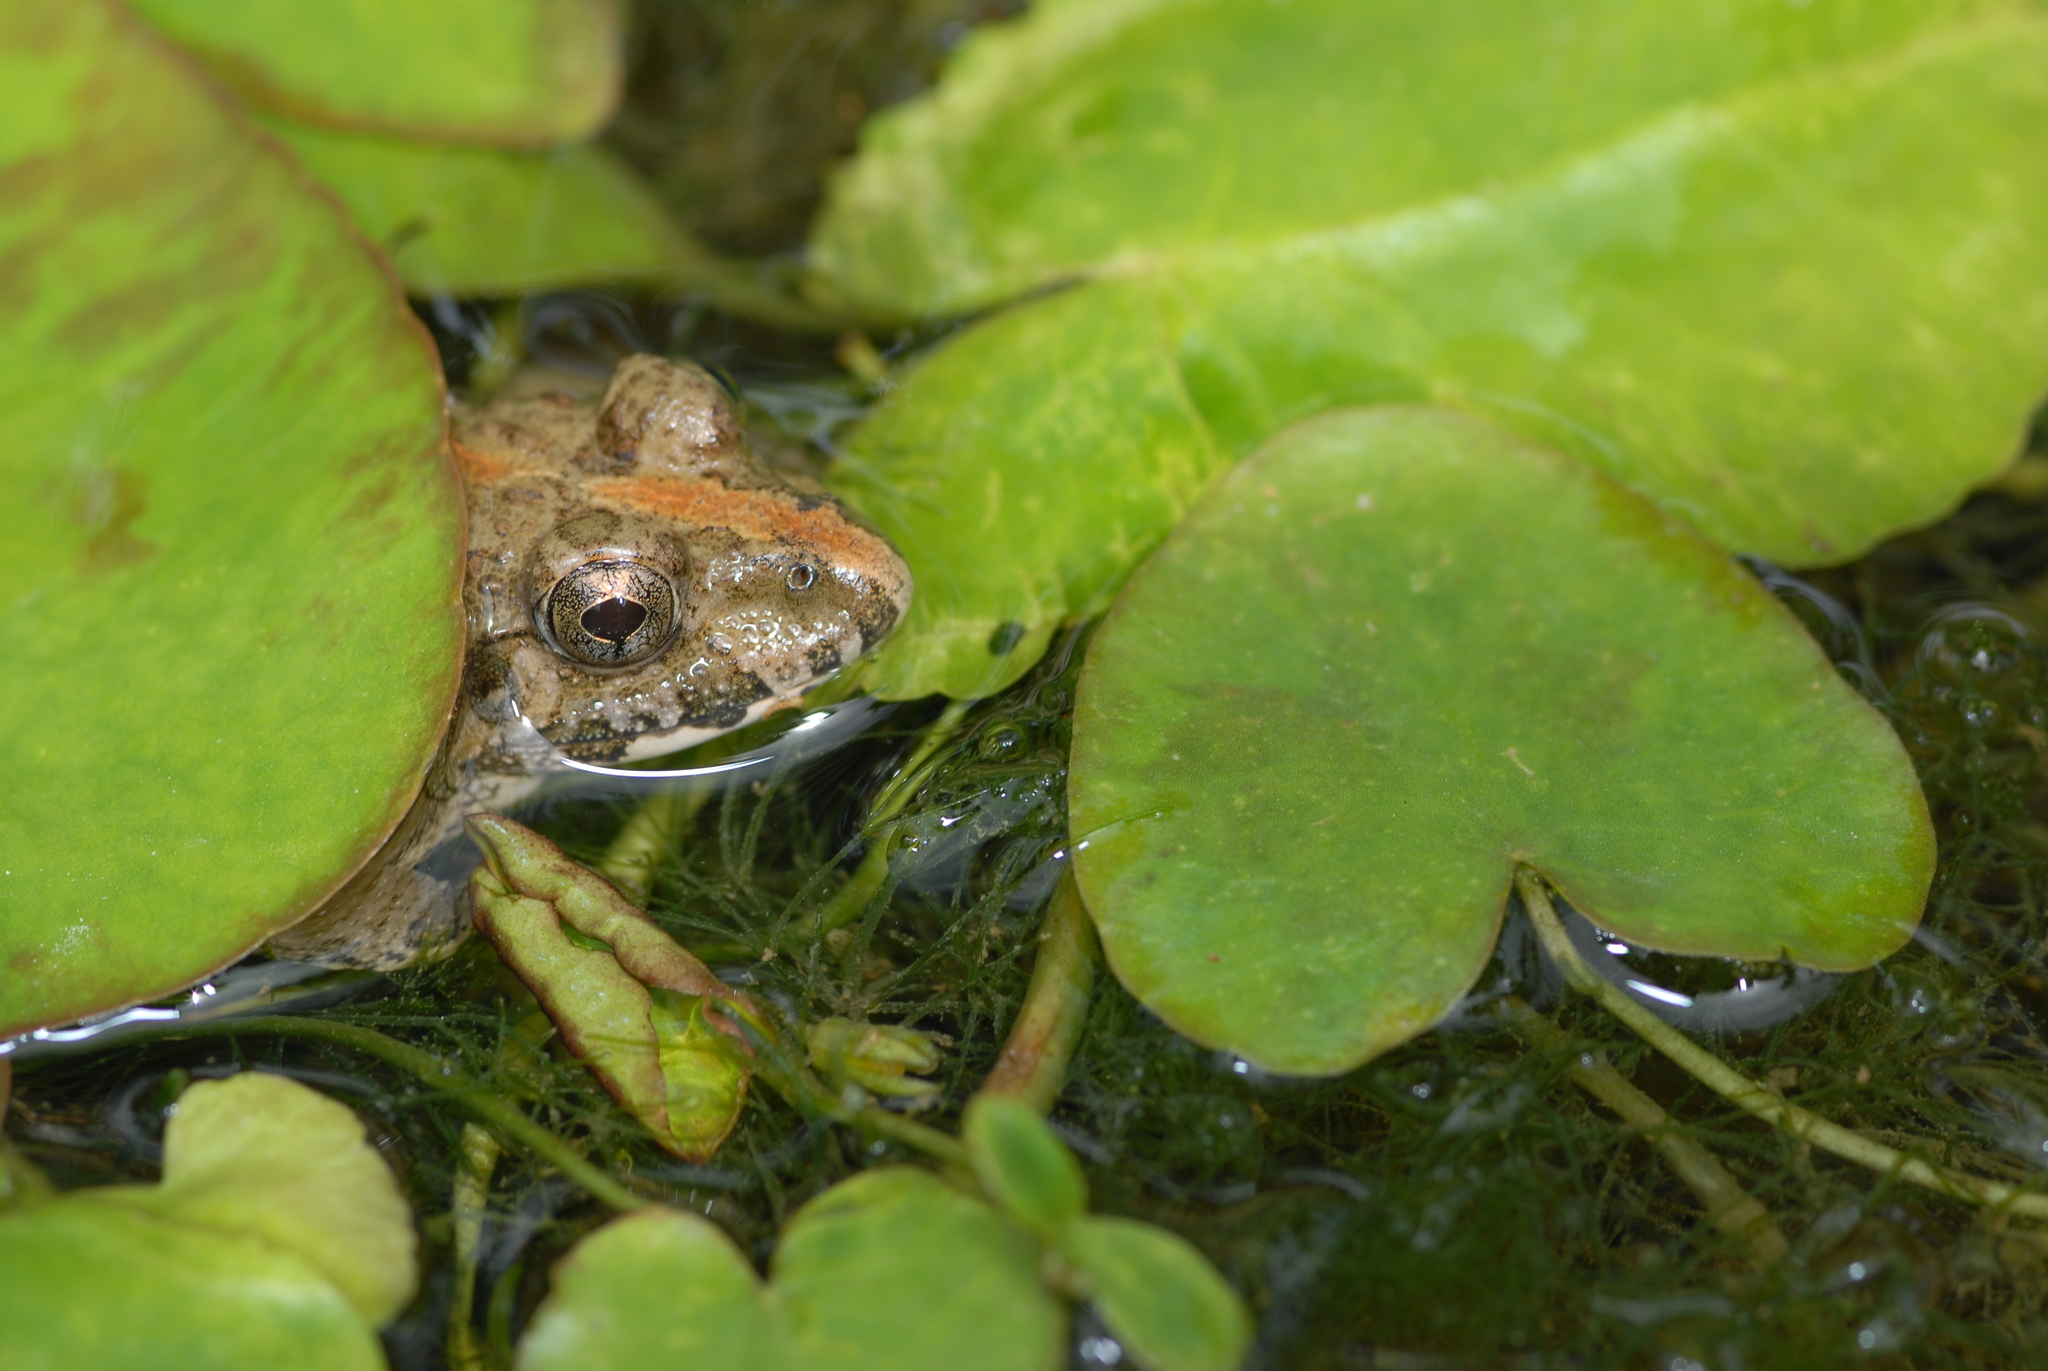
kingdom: Animalia
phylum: Chordata
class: Amphibia
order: Anura
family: Dicroglossidae
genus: Fejervarya
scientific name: Fejervarya limnocharis
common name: Asian grass frog/common pond frog/field frog/grass frog/indian rice frog
